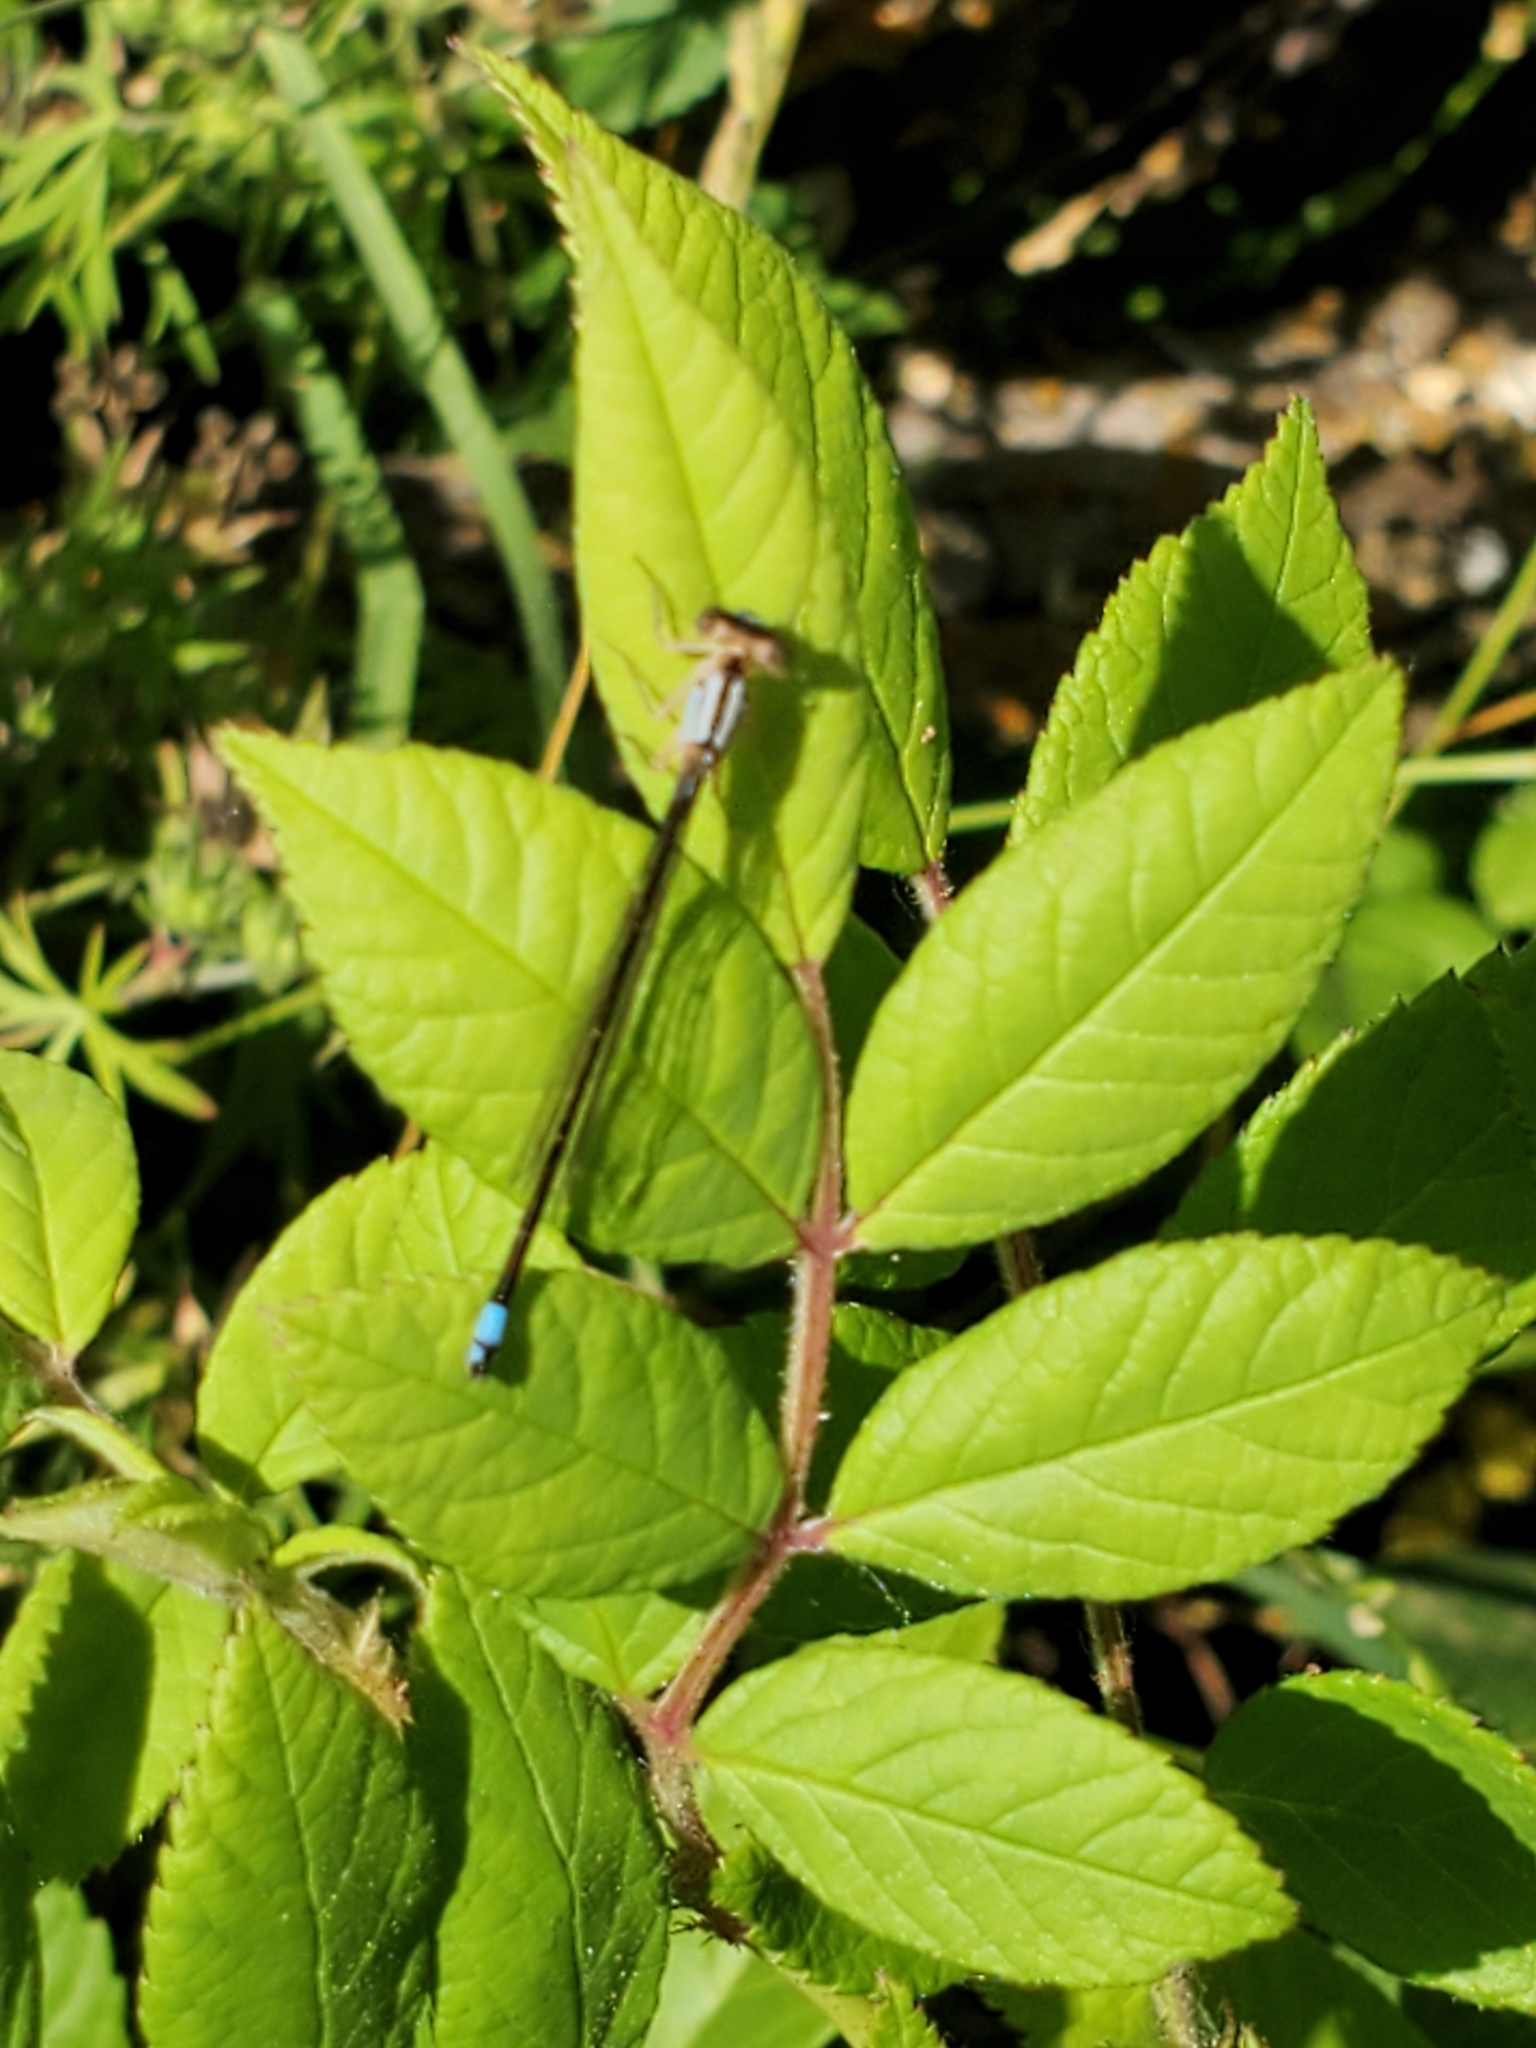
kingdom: Animalia
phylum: Arthropoda
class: Insecta
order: Odonata
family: Coenagrionidae
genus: Ischnura
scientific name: Ischnura cervula
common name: Pacific forktail
